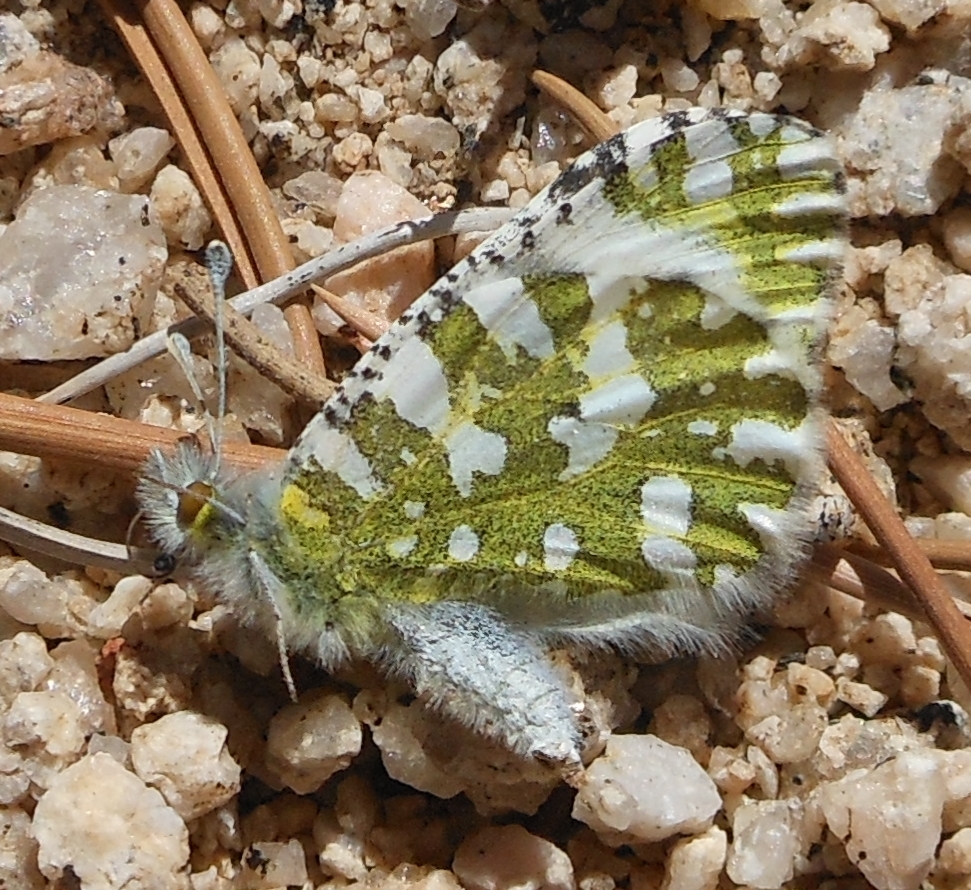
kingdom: Animalia
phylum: Arthropoda
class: Insecta
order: Lepidoptera
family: Pieridae
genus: Euchloe
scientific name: Euchloe lotta
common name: Desert marble
